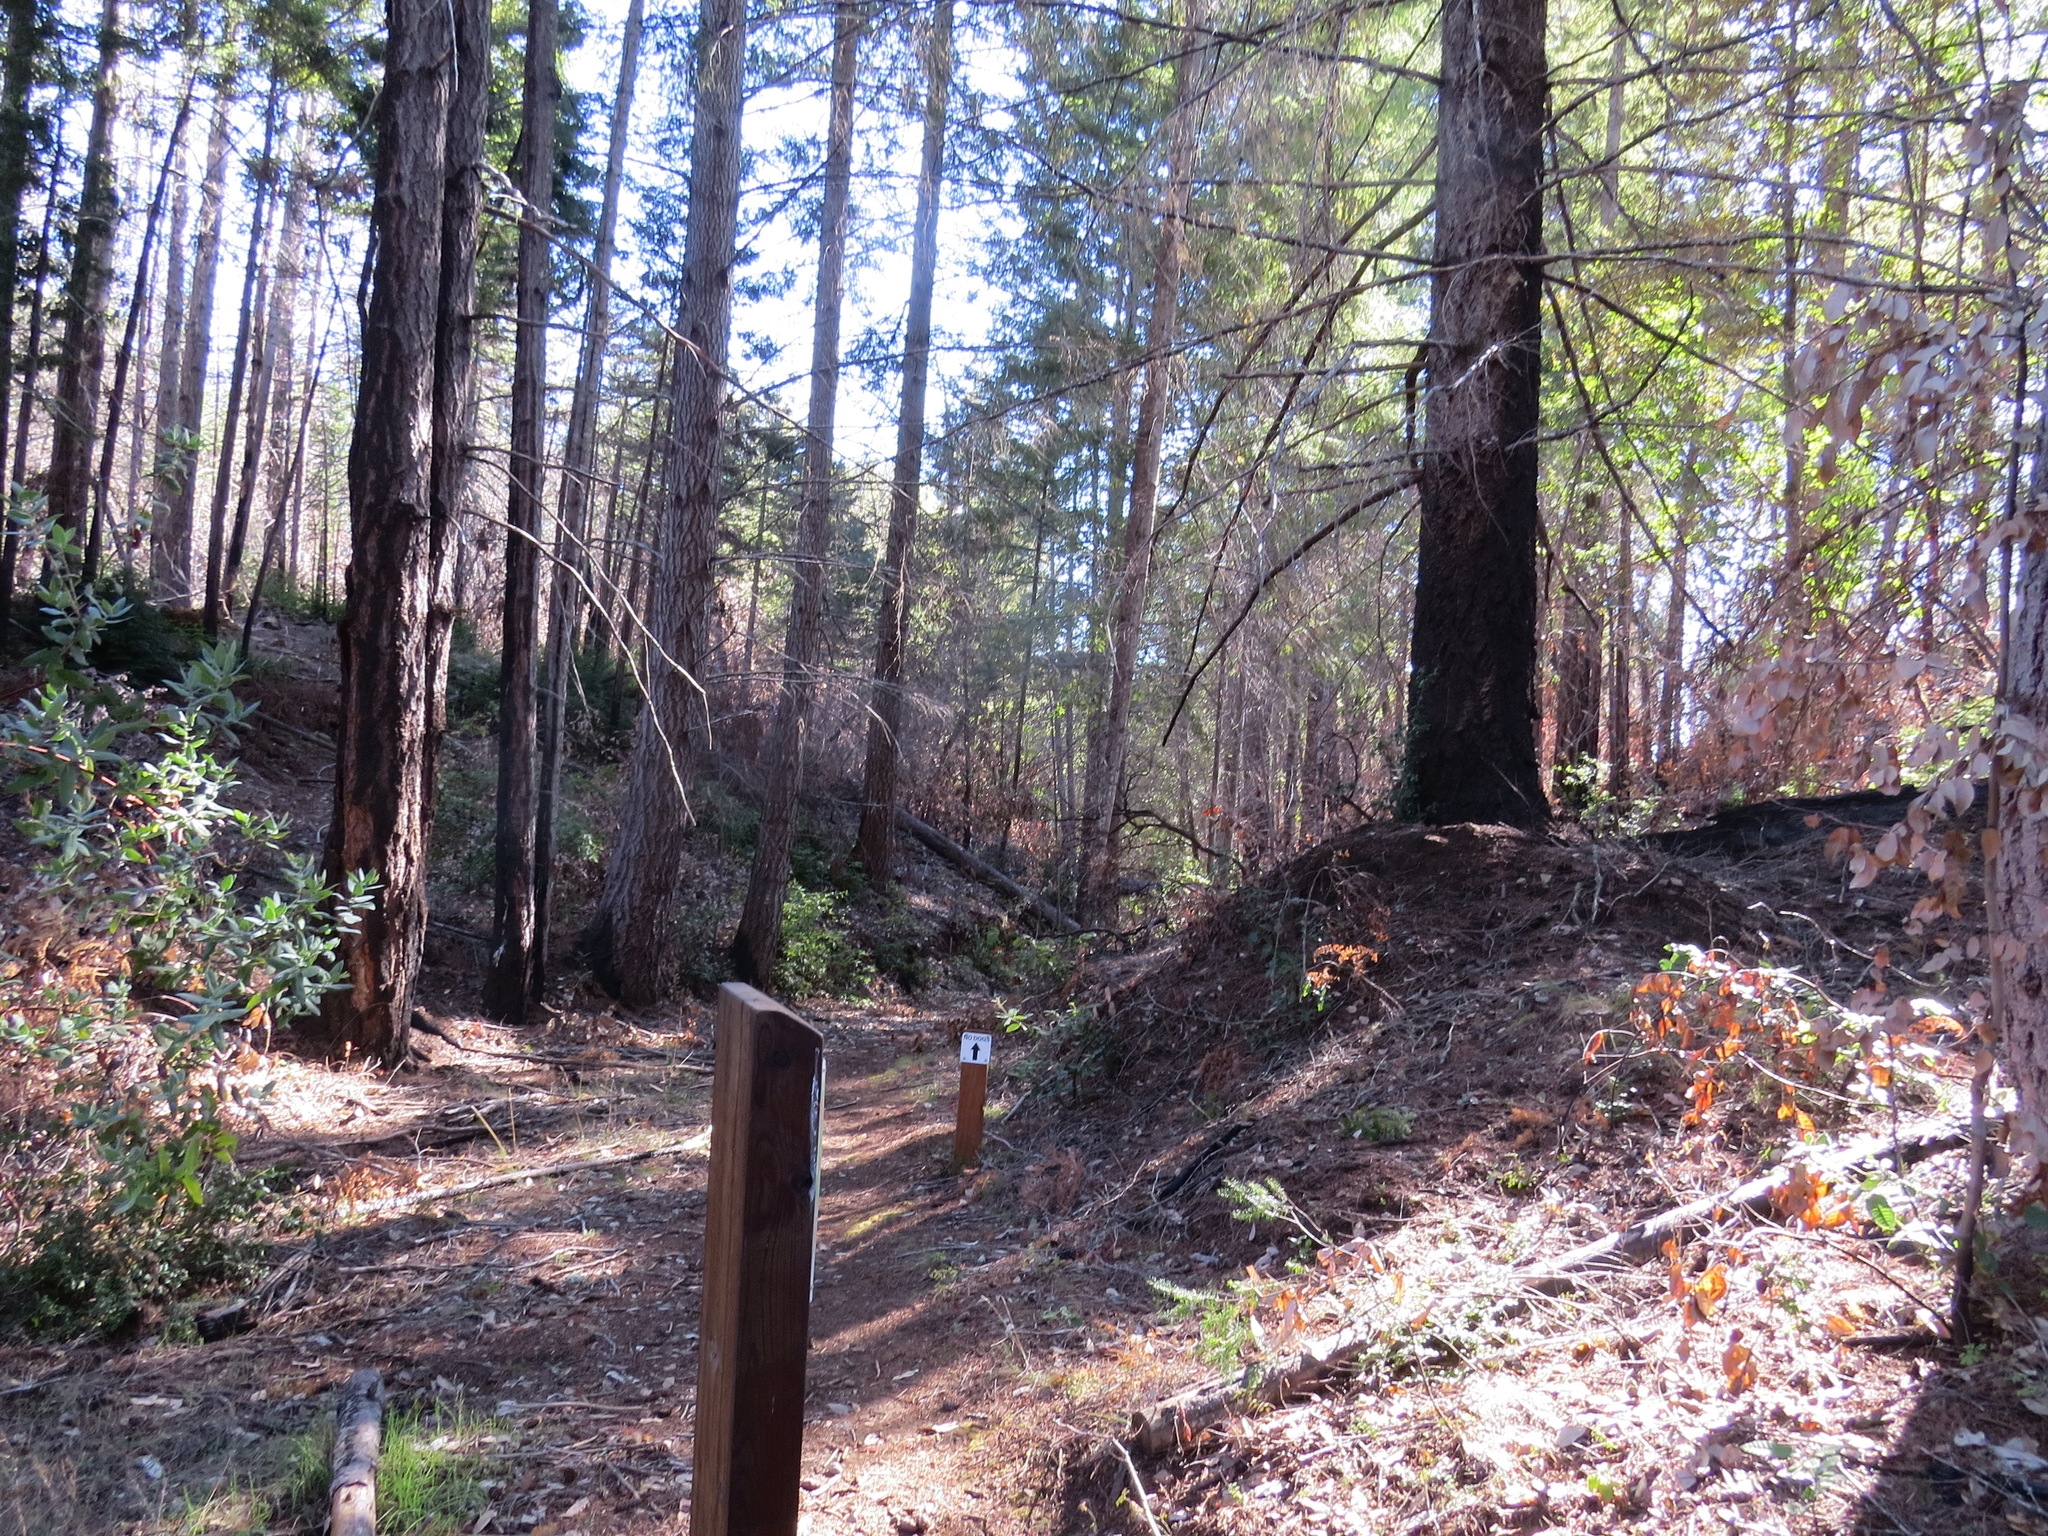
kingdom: Plantae
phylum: Tracheophyta
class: Pinopsida
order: Pinales
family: Cupressaceae
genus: Sequoia
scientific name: Sequoia sempervirens
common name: Coast redwood
